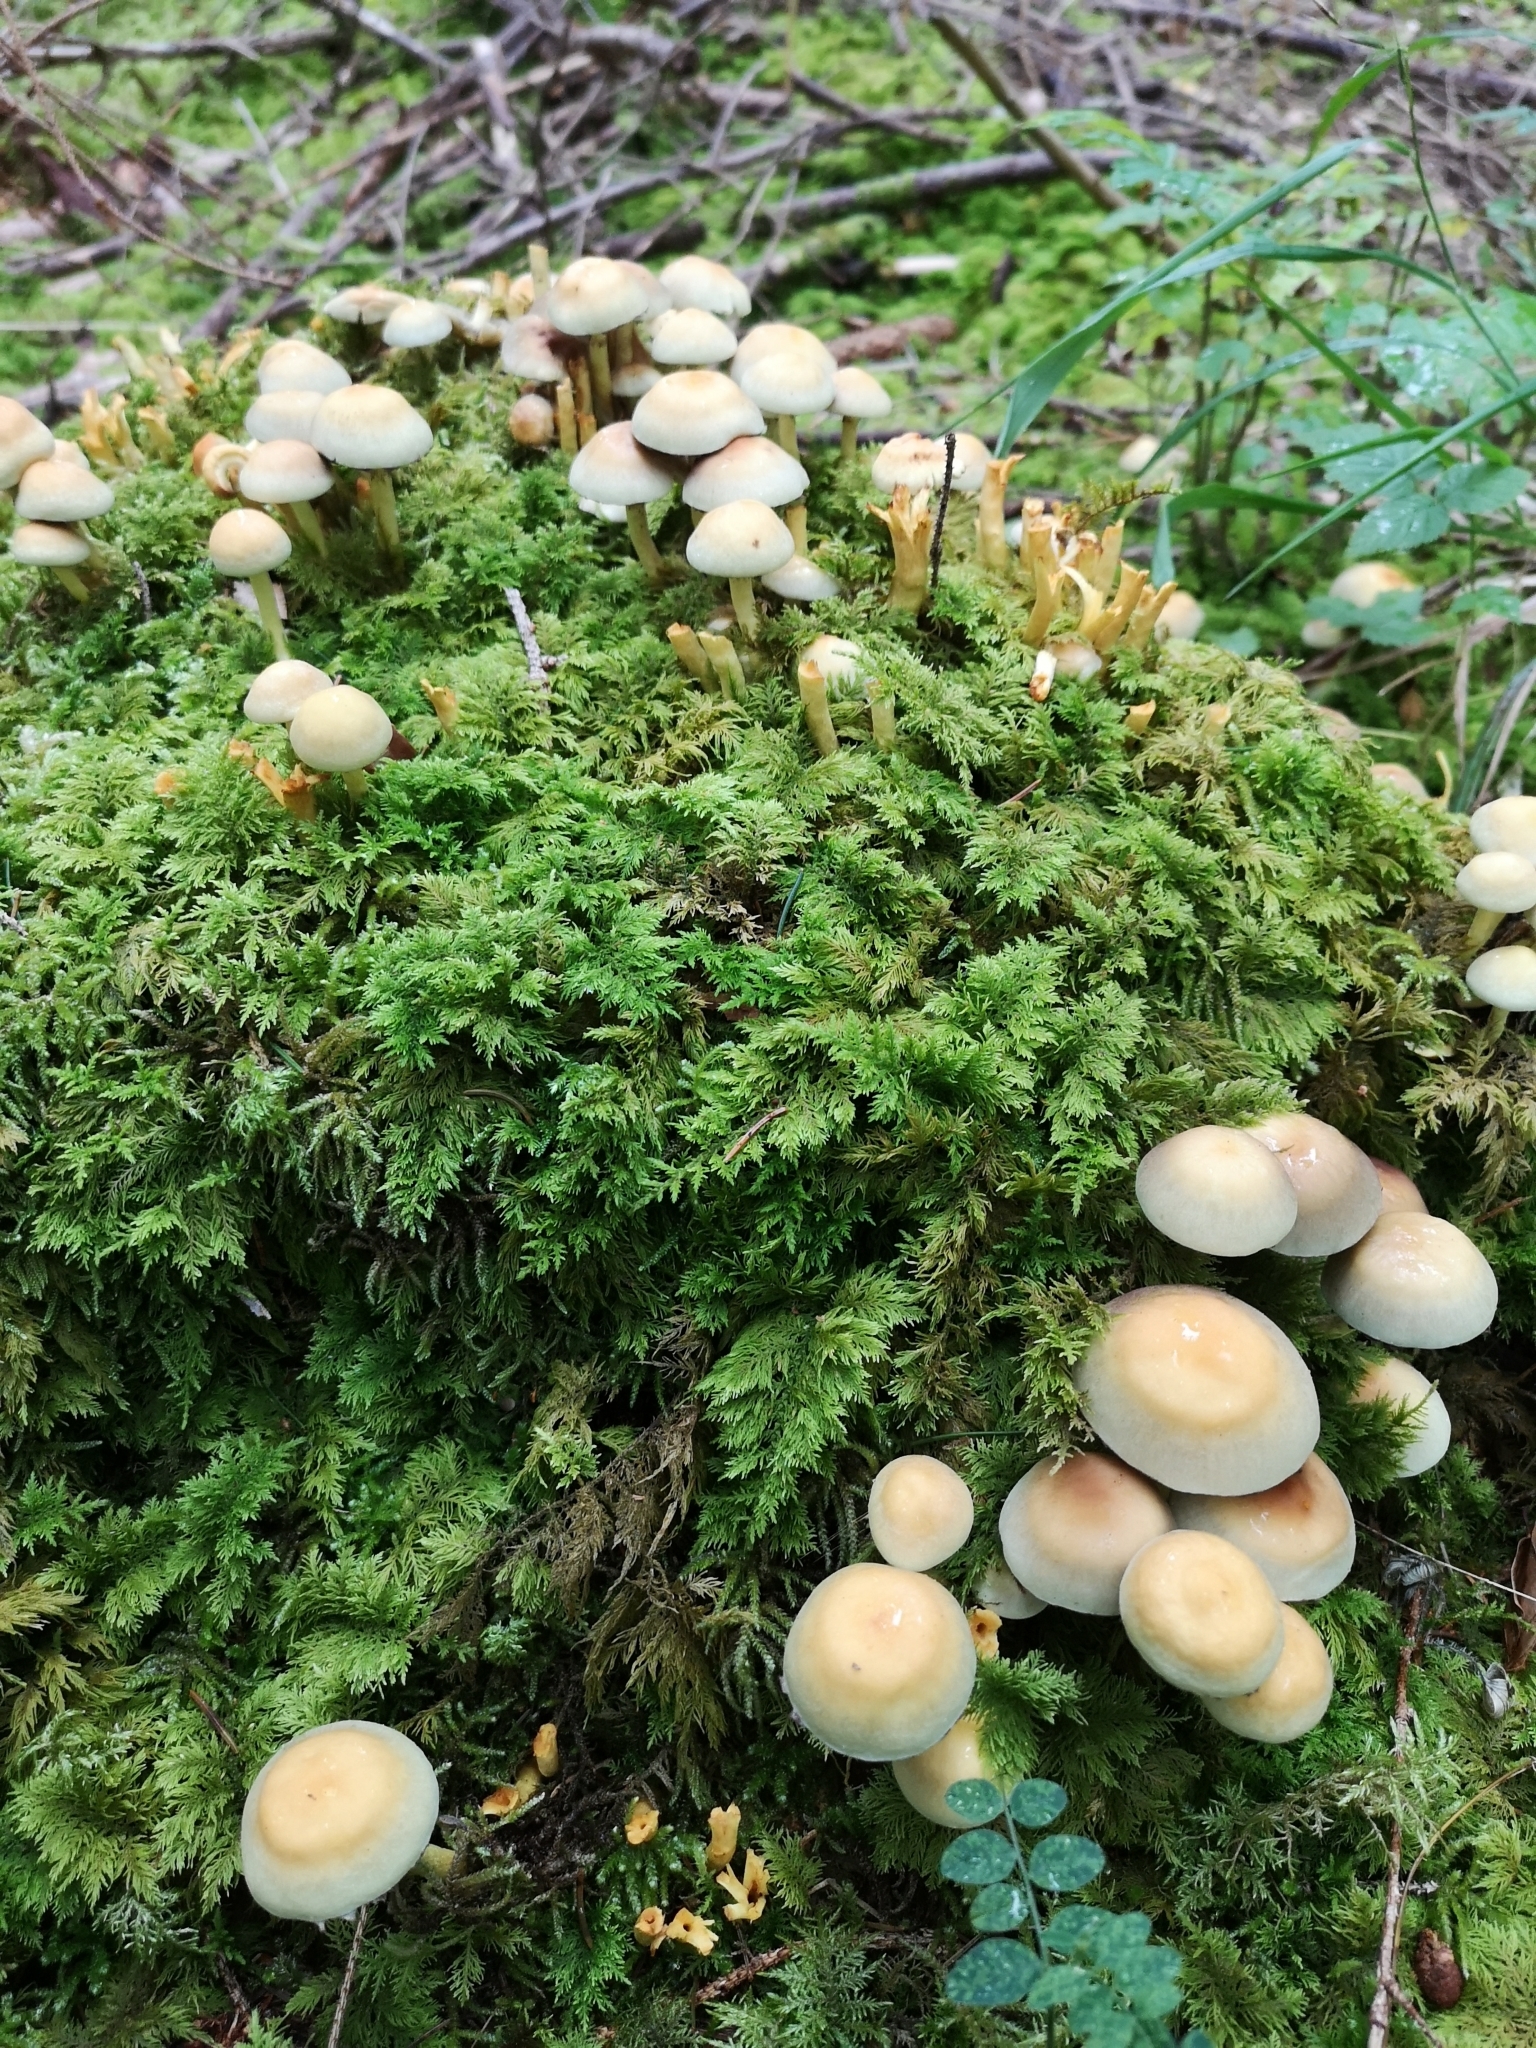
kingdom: Fungi
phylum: Basidiomycota
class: Agaricomycetes
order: Agaricales
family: Strophariaceae
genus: Hypholoma
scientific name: Hypholoma fasciculare
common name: Sulphur tuft
